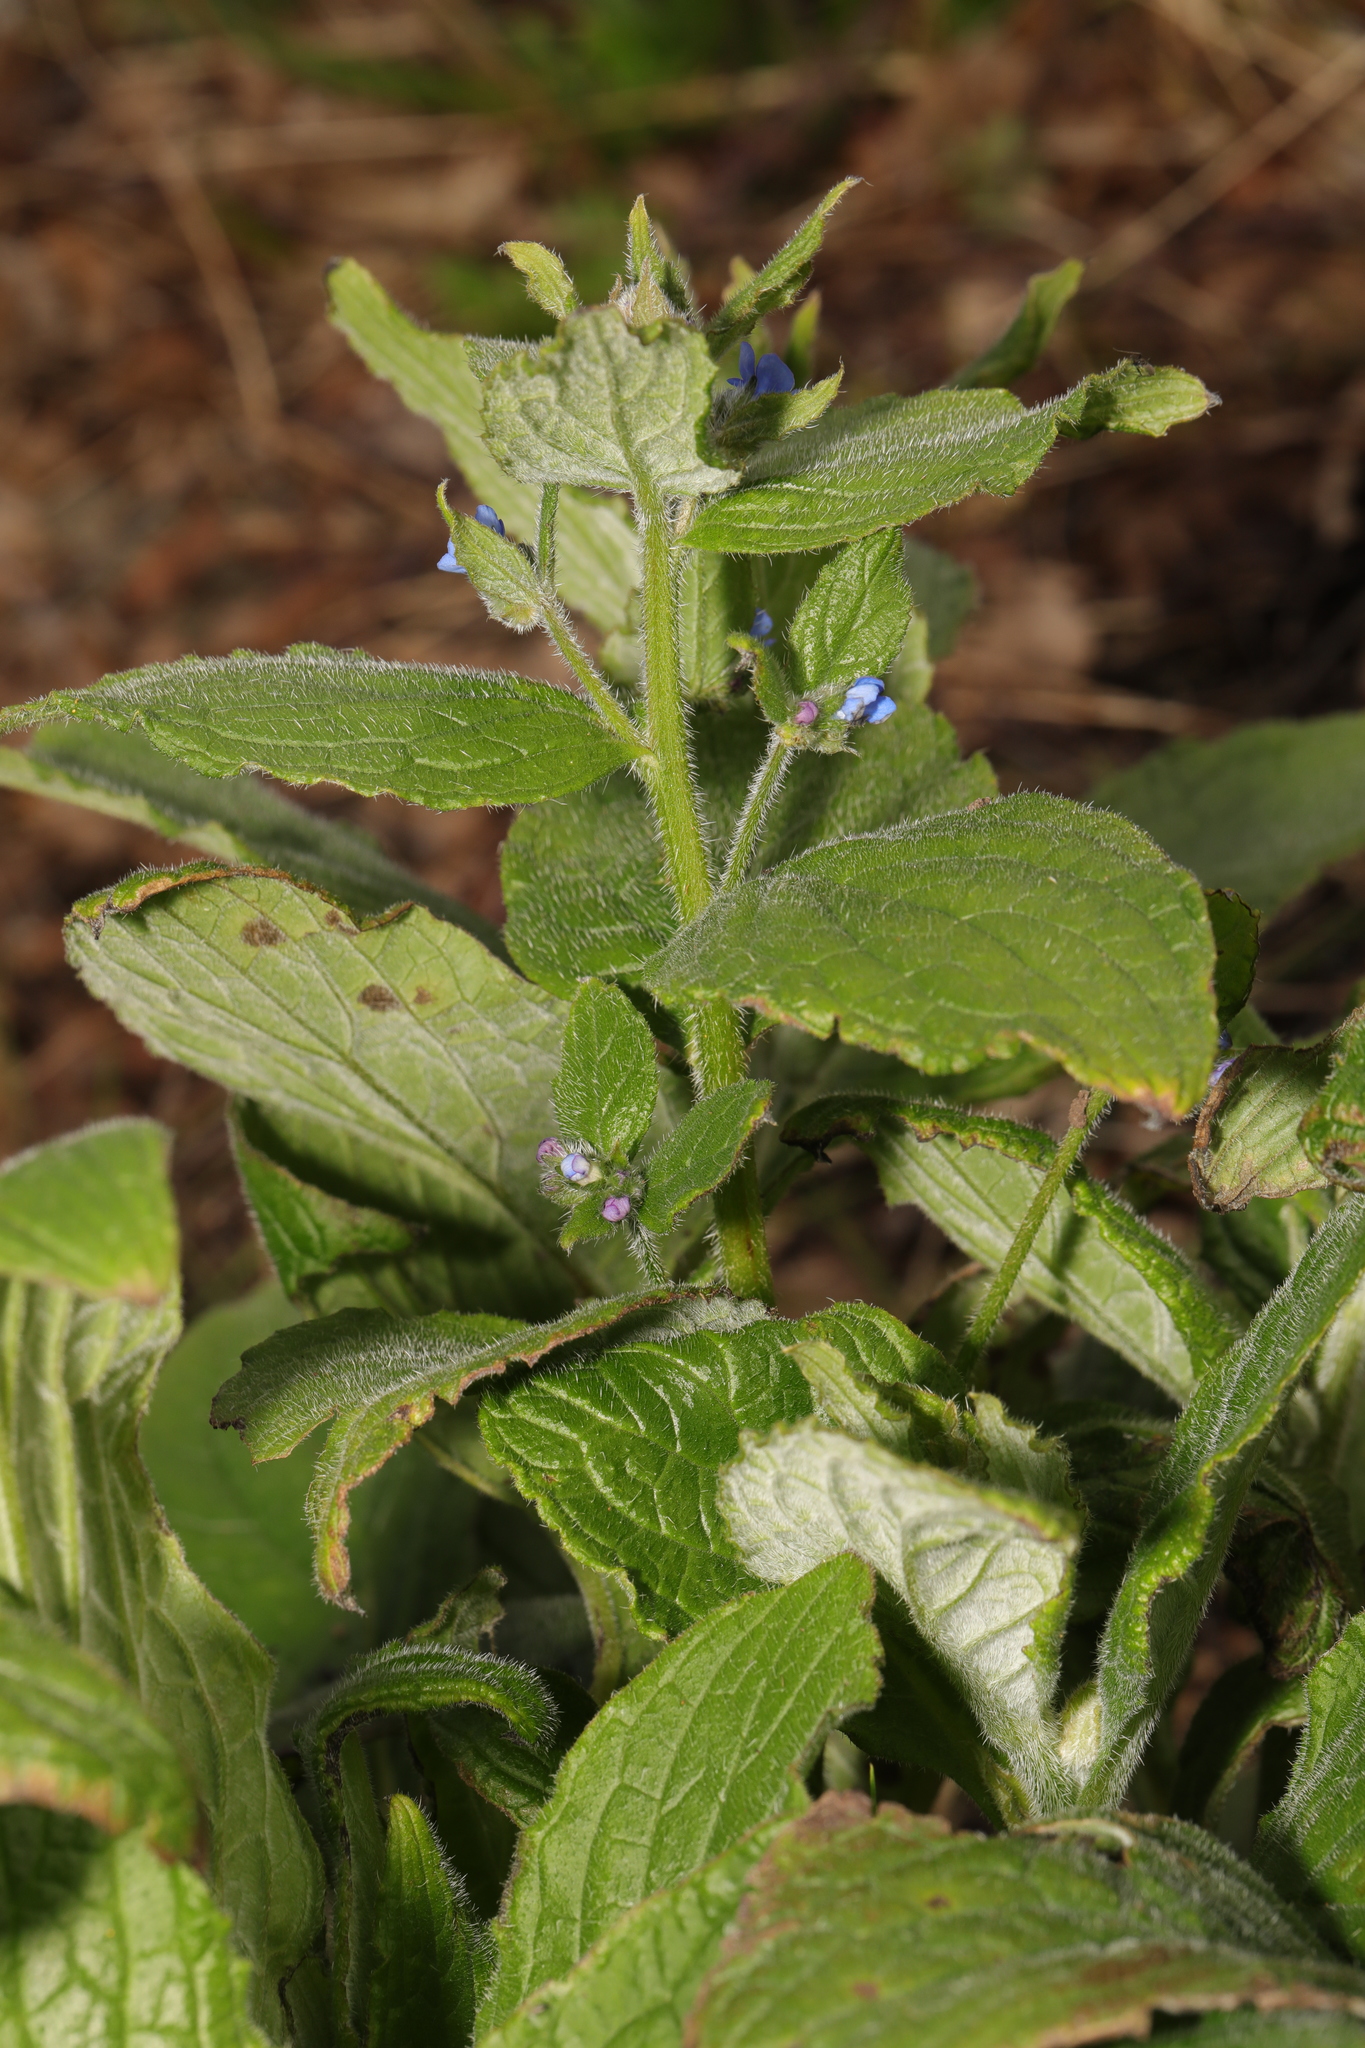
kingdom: Plantae
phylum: Tracheophyta
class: Magnoliopsida
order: Boraginales
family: Boraginaceae
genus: Pentaglottis
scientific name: Pentaglottis sempervirens
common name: Green alkanet
